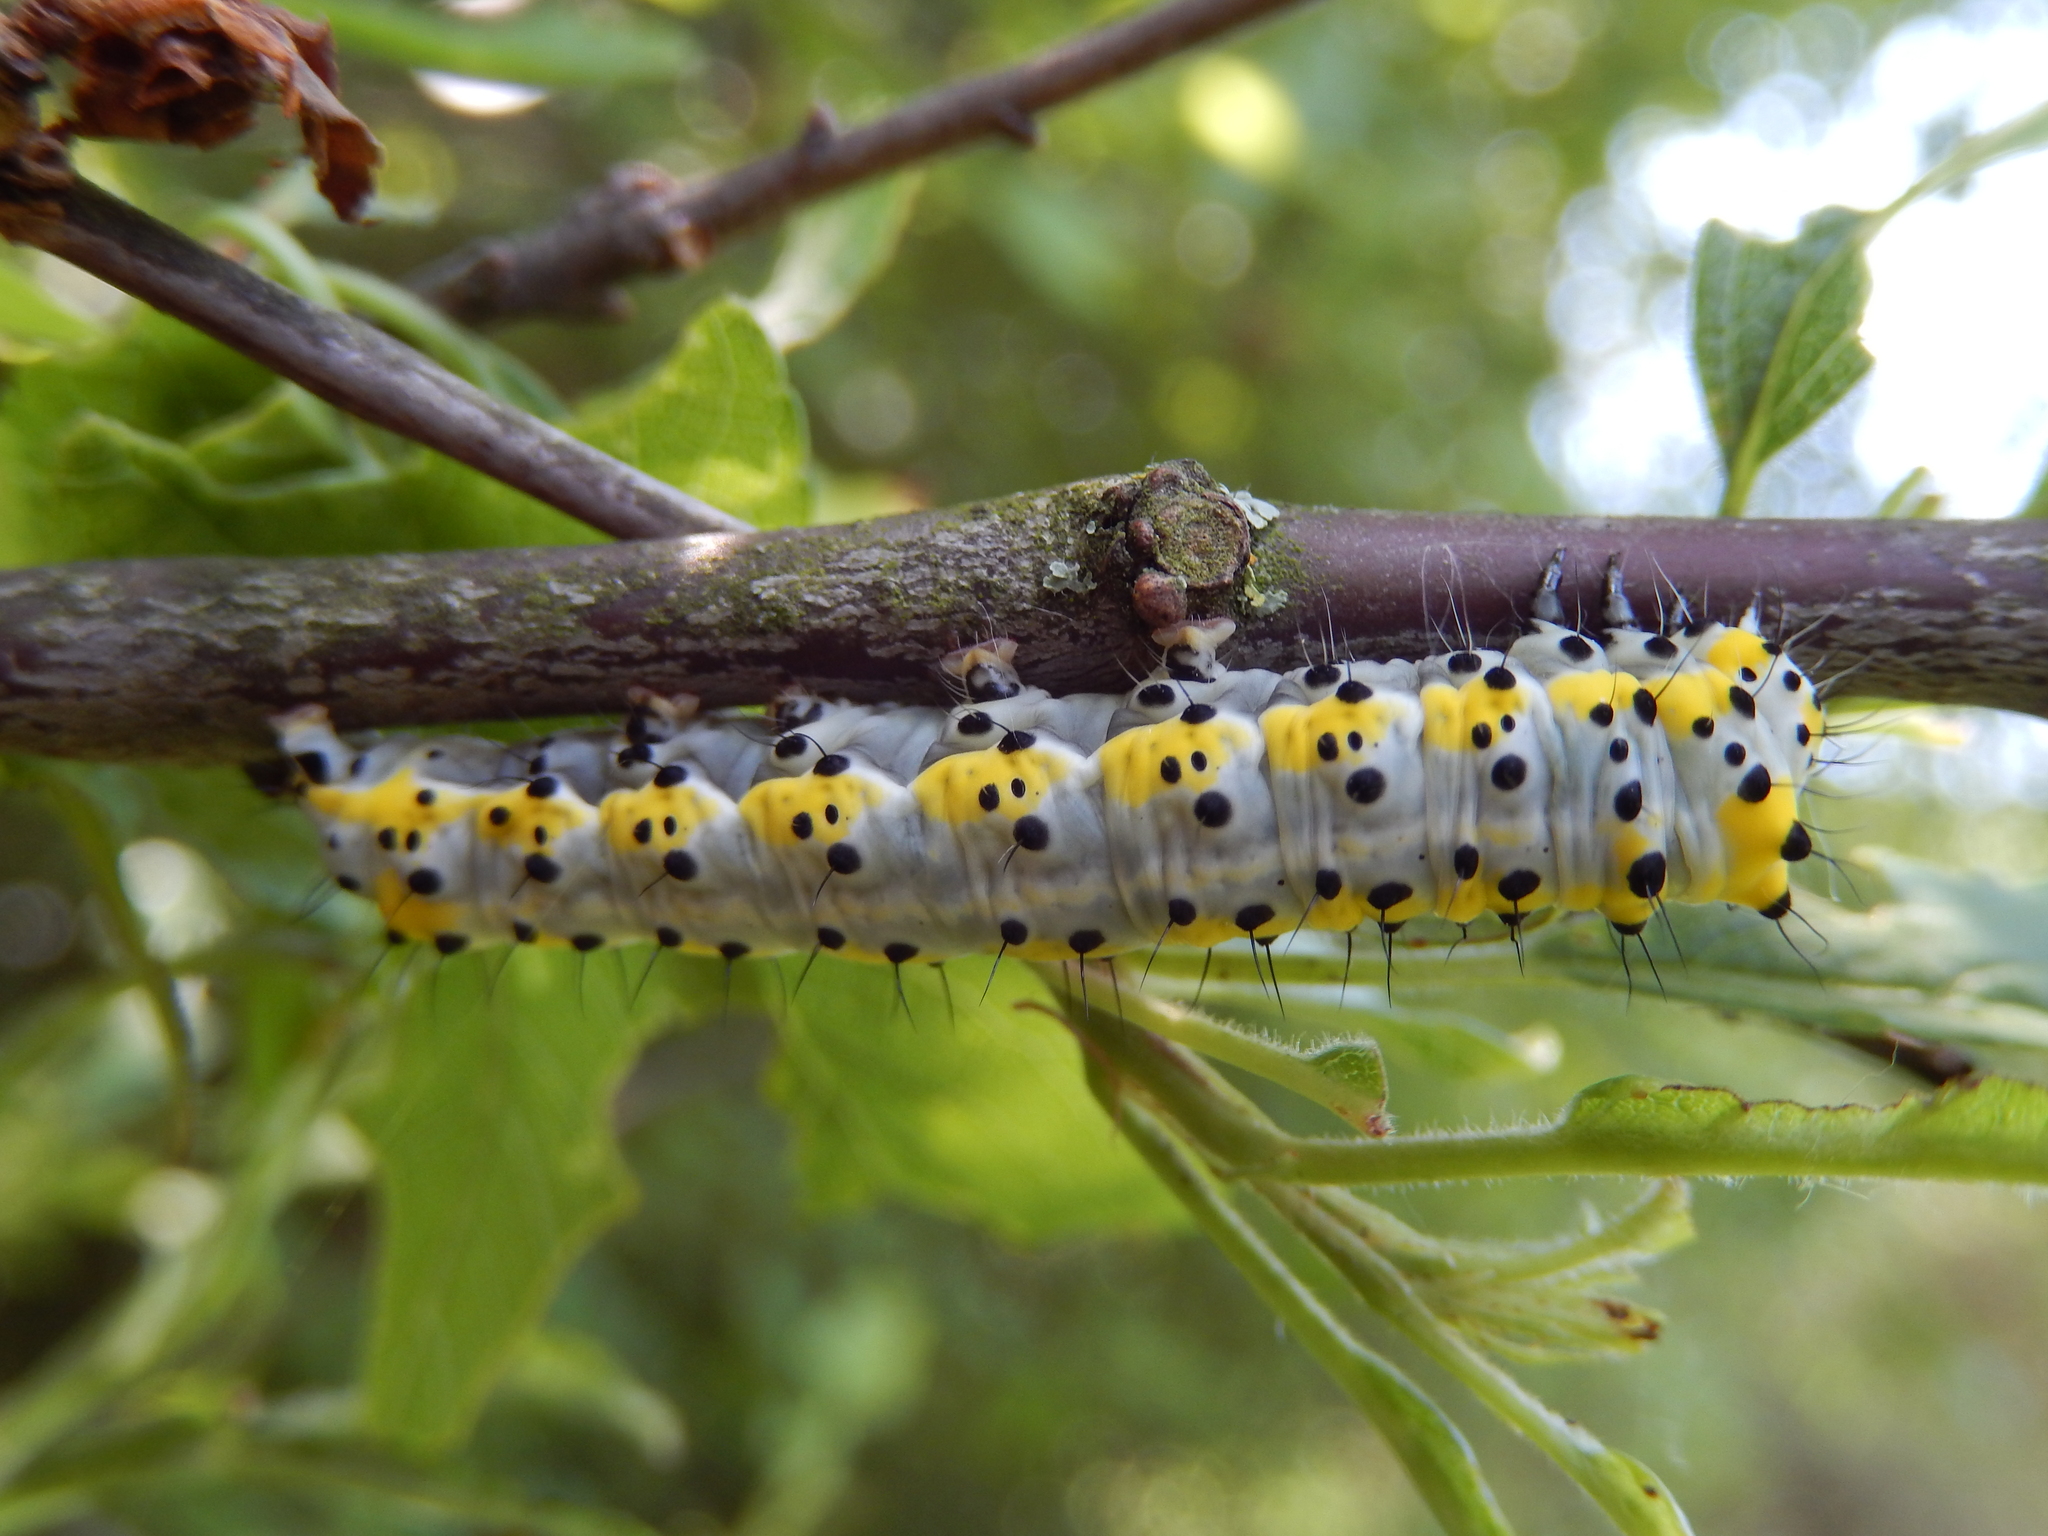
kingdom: Animalia
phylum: Arthropoda
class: Insecta
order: Lepidoptera
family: Noctuidae
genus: Diloba
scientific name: Diloba caeruleocephala
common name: Figure of eight
